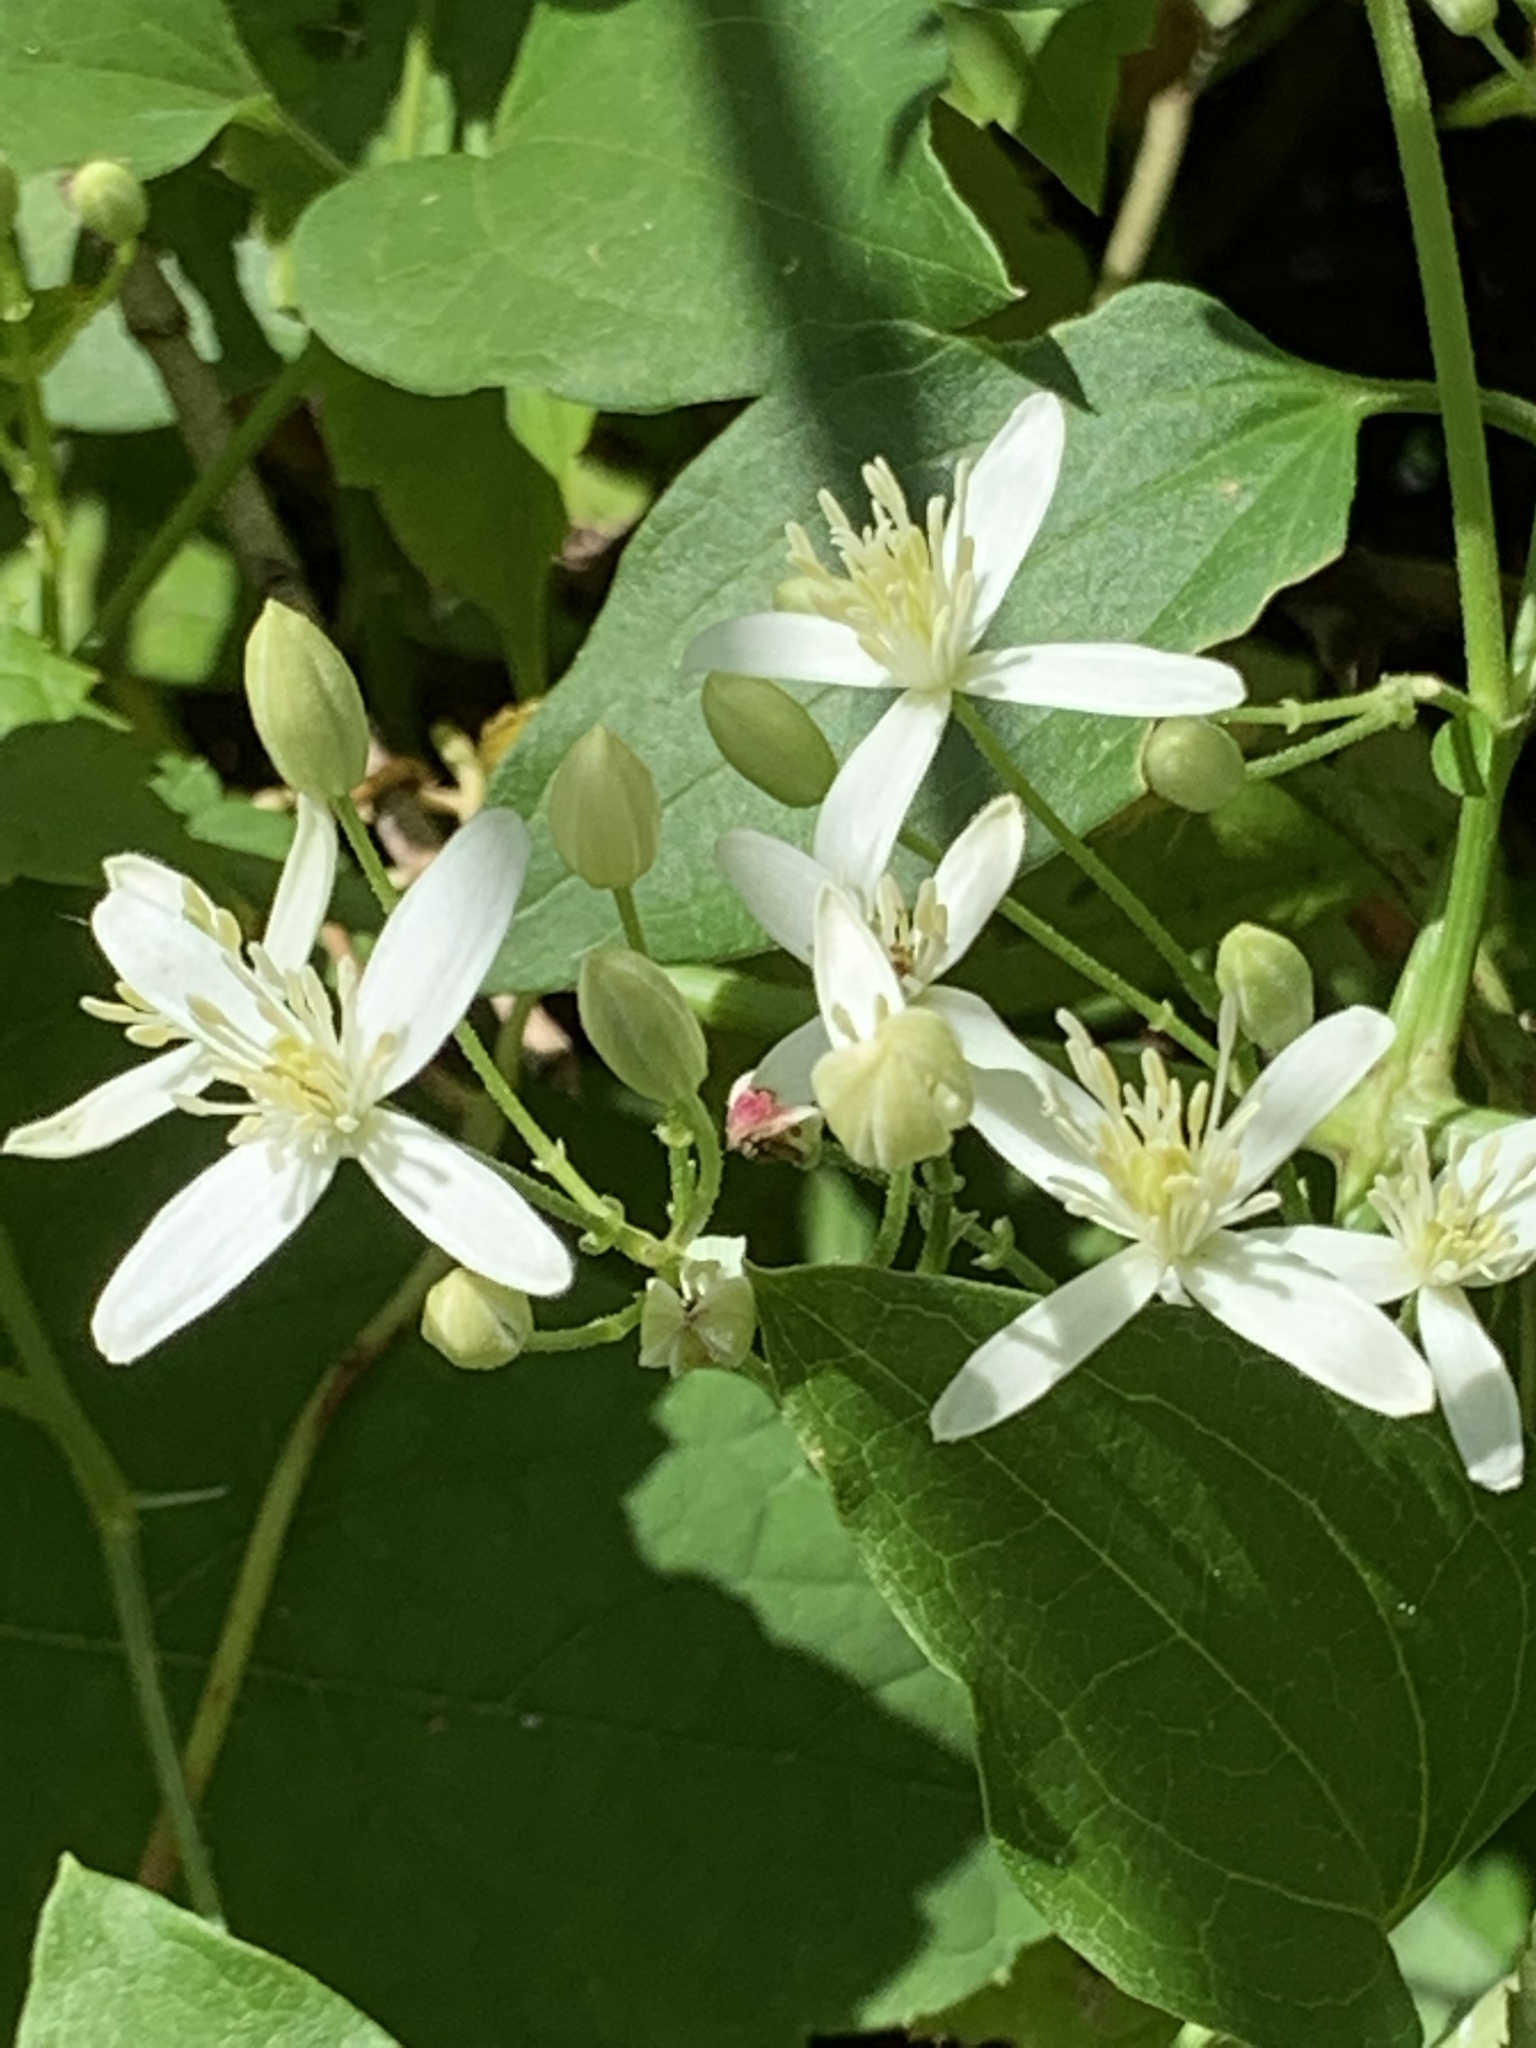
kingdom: Plantae
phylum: Tracheophyta
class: Magnoliopsida
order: Ranunculales
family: Ranunculaceae
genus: Clematis
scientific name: Clematis terniflora
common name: Sweet autumn clematis
